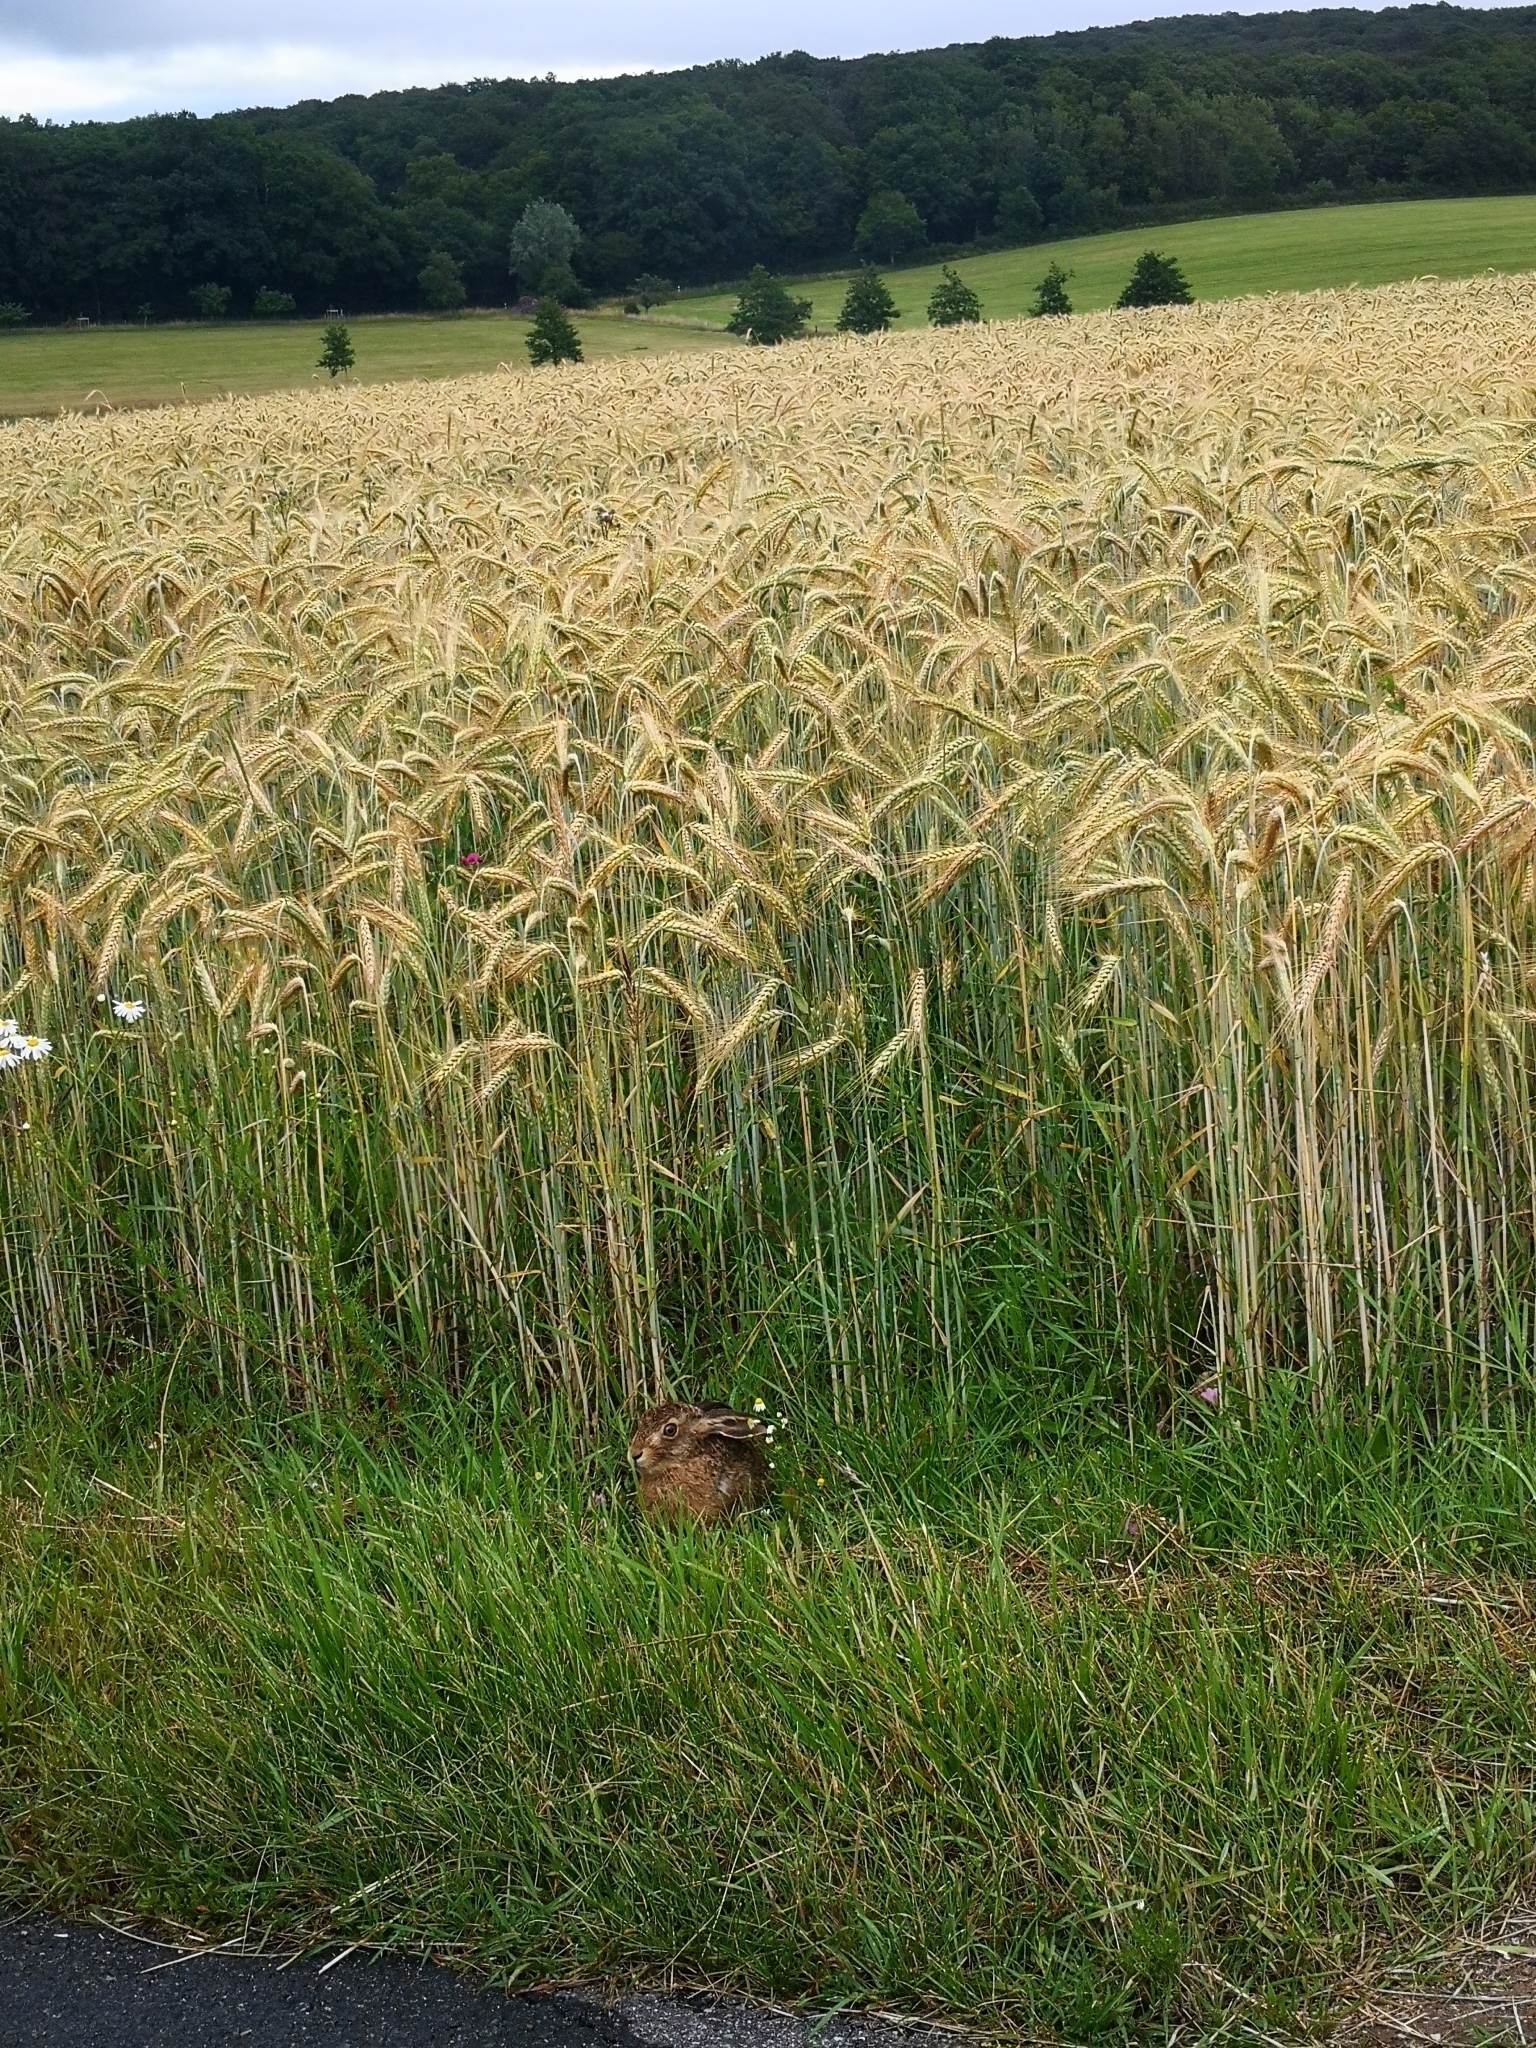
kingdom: Animalia
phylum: Chordata
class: Mammalia
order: Lagomorpha
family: Leporidae
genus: Lepus
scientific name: Lepus europaeus
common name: European hare
